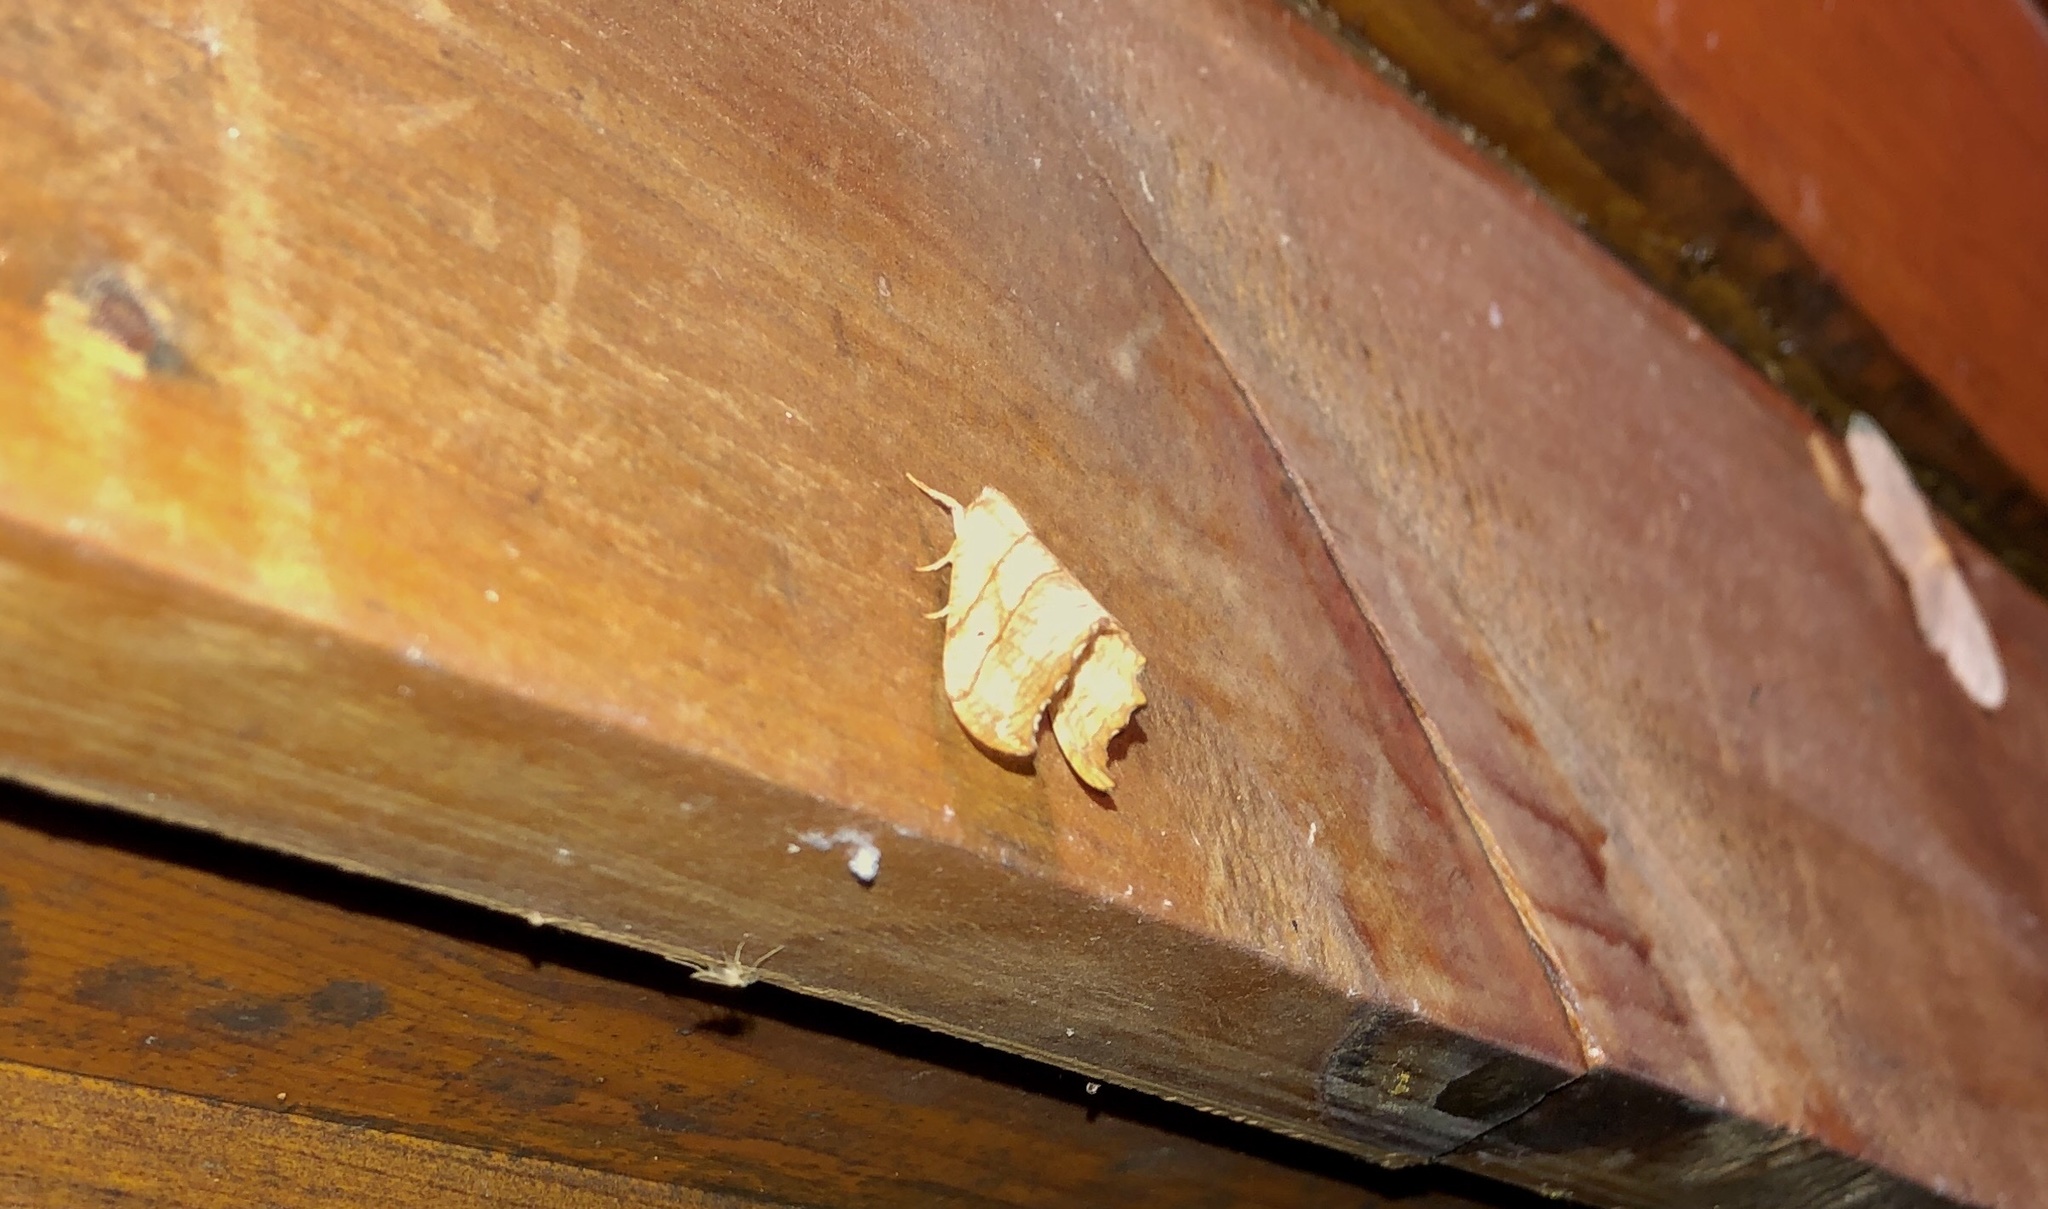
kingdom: Animalia
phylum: Arthropoda
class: Insecta
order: Lepidoptera
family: Drepanidae
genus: Falcaria
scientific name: Falcaria bilineata
